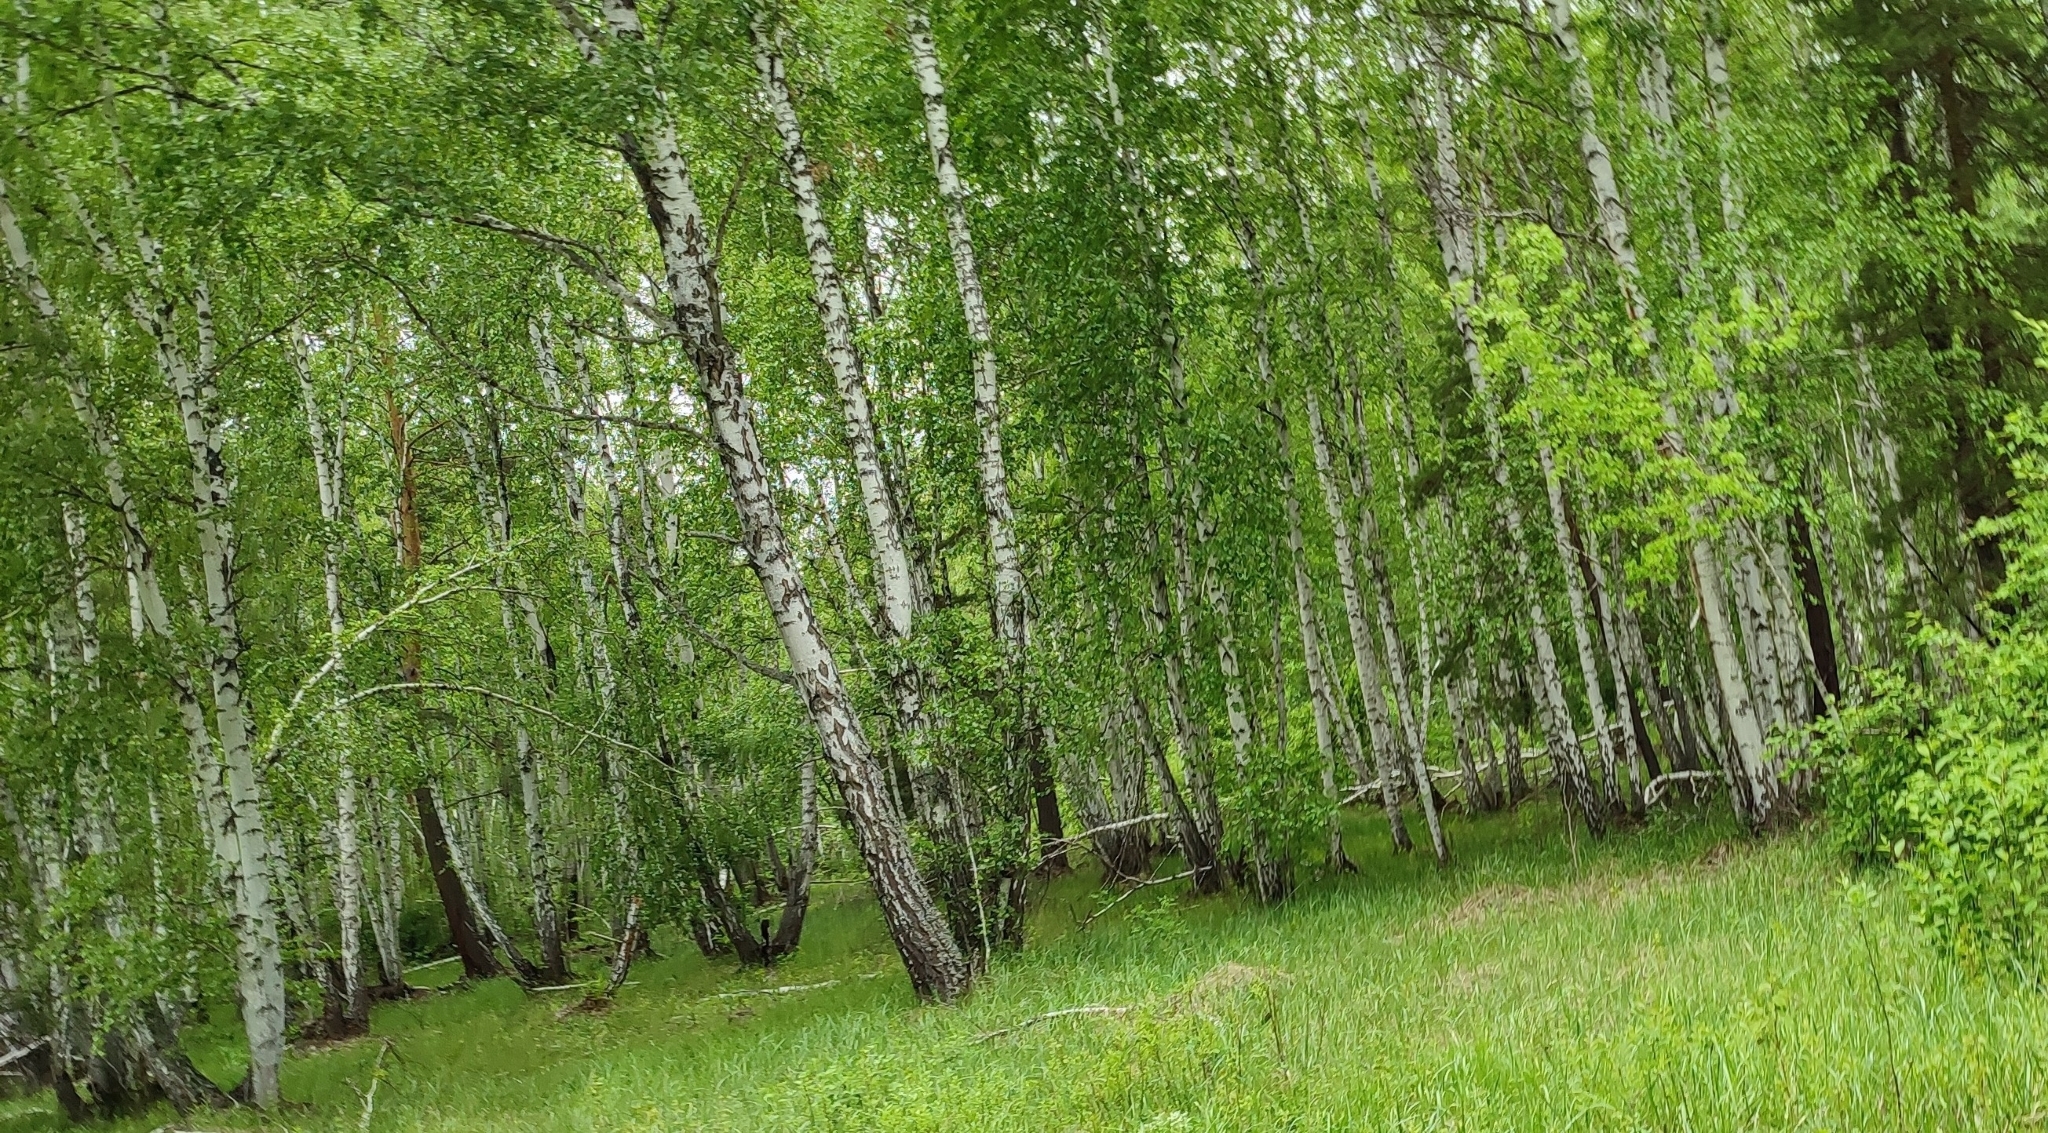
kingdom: Plantae
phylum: Tracheophyta
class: Magnoliopsida
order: Fagales
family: Betulaceae
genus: Betula
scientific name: Betula pendula
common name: Silver birch
